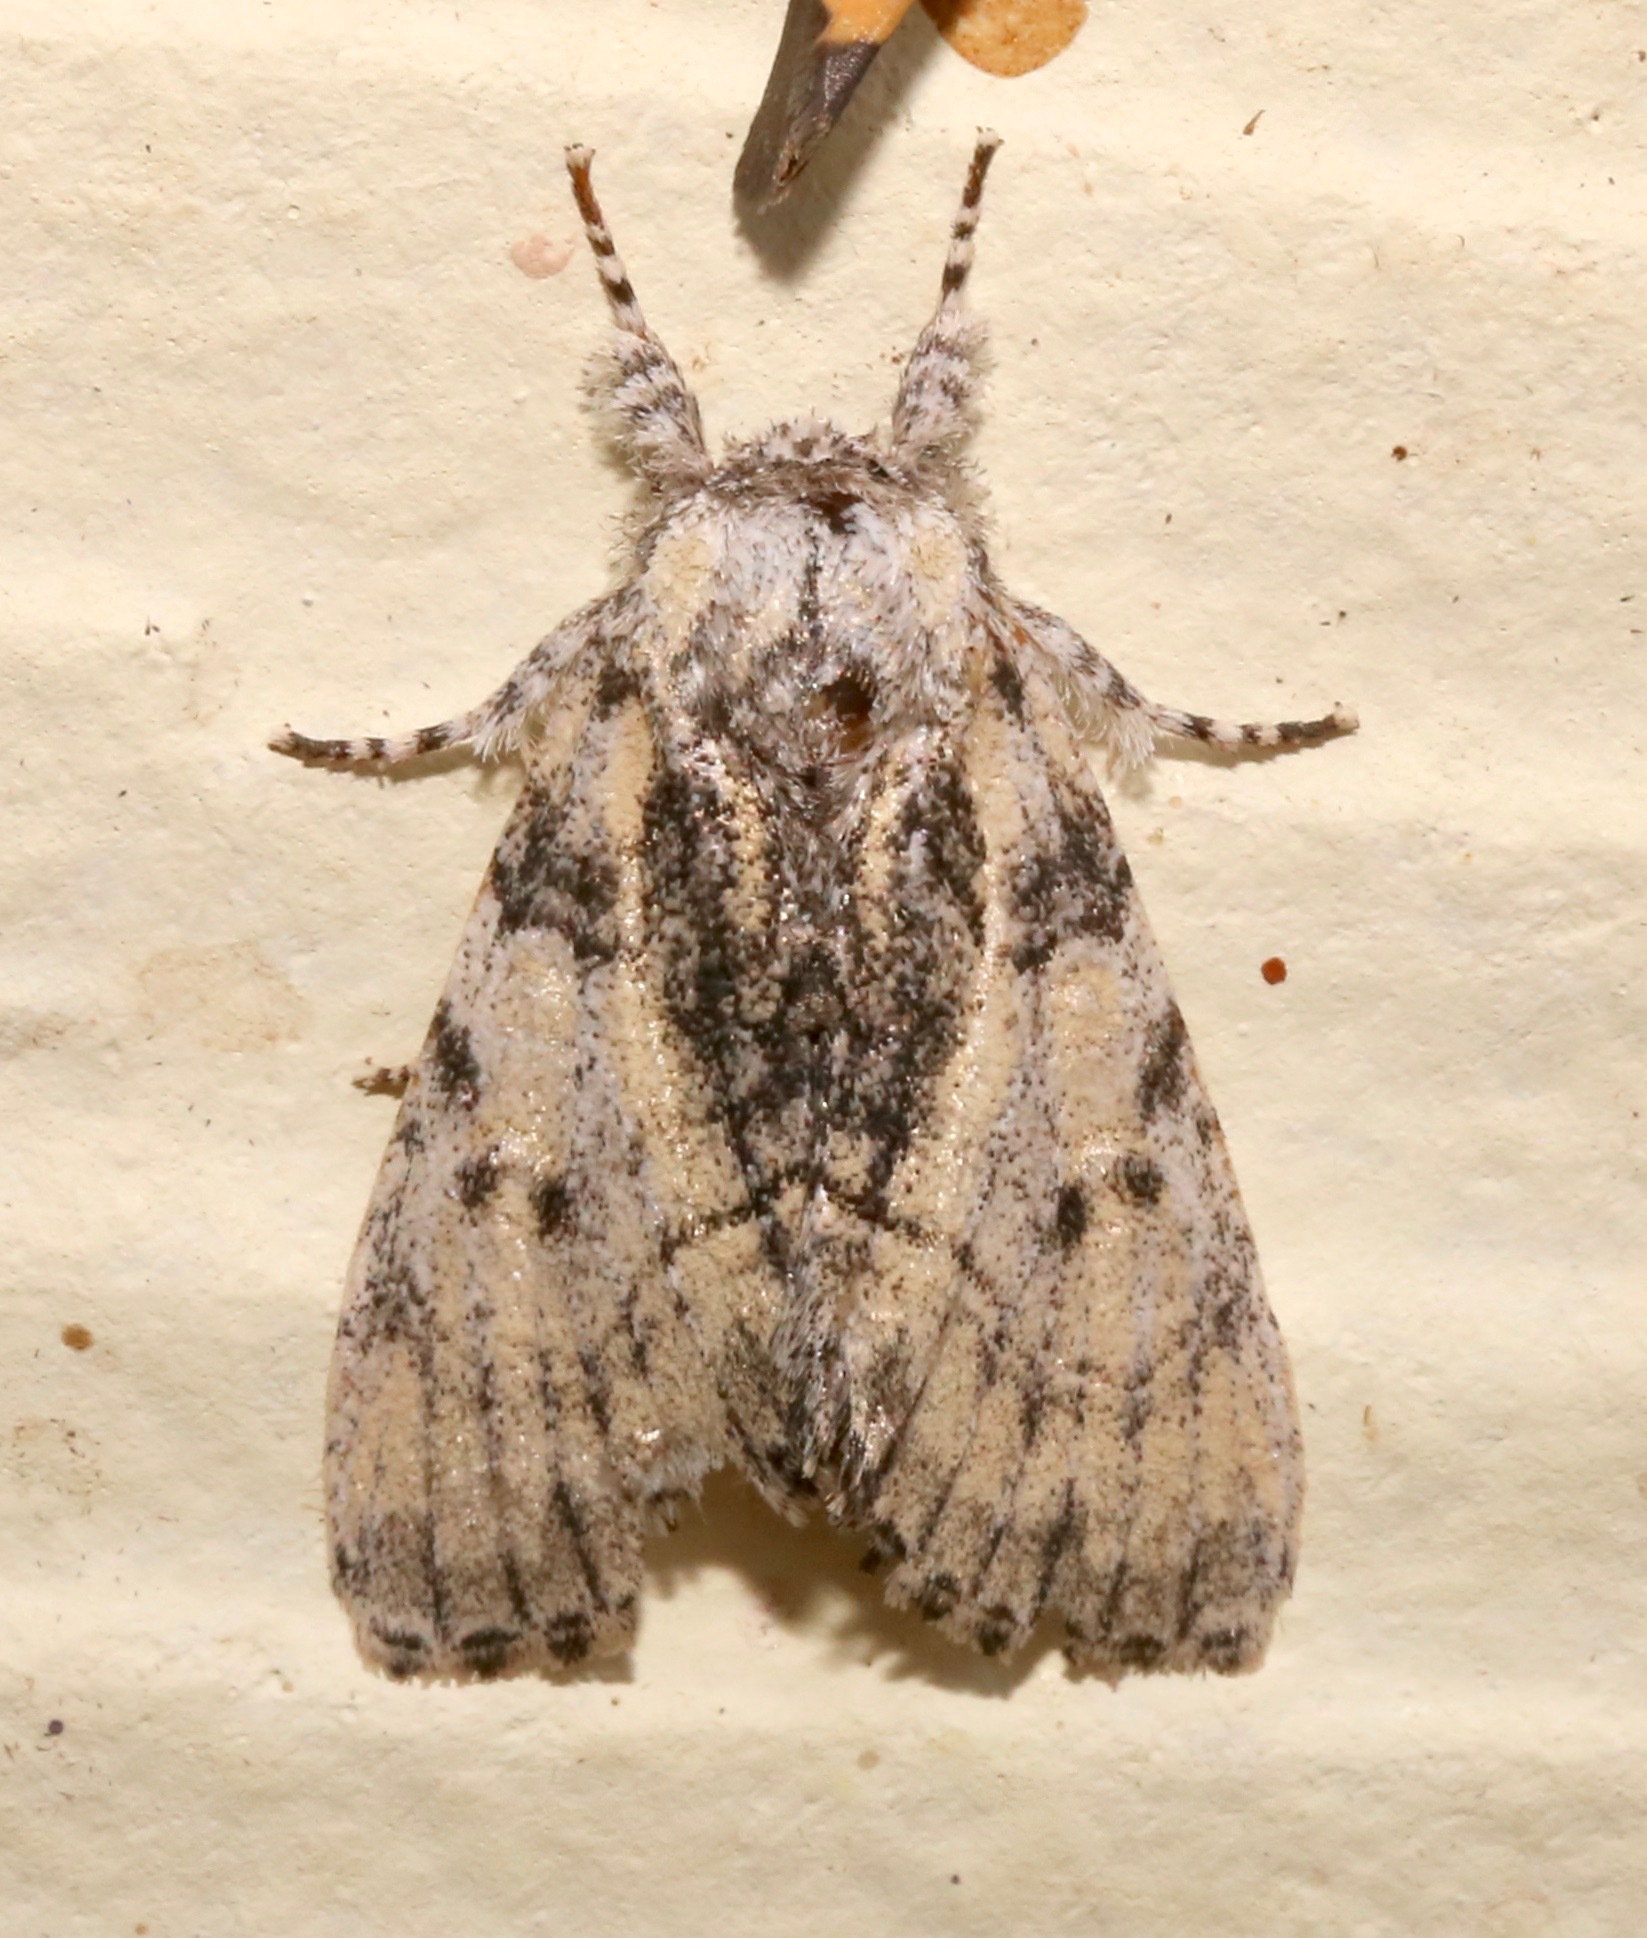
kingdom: Animalia
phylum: Arthropoda
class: Insecta
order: Lepidoptera
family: Noctuidae
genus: Raphia
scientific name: Raphia frater
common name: Brother
